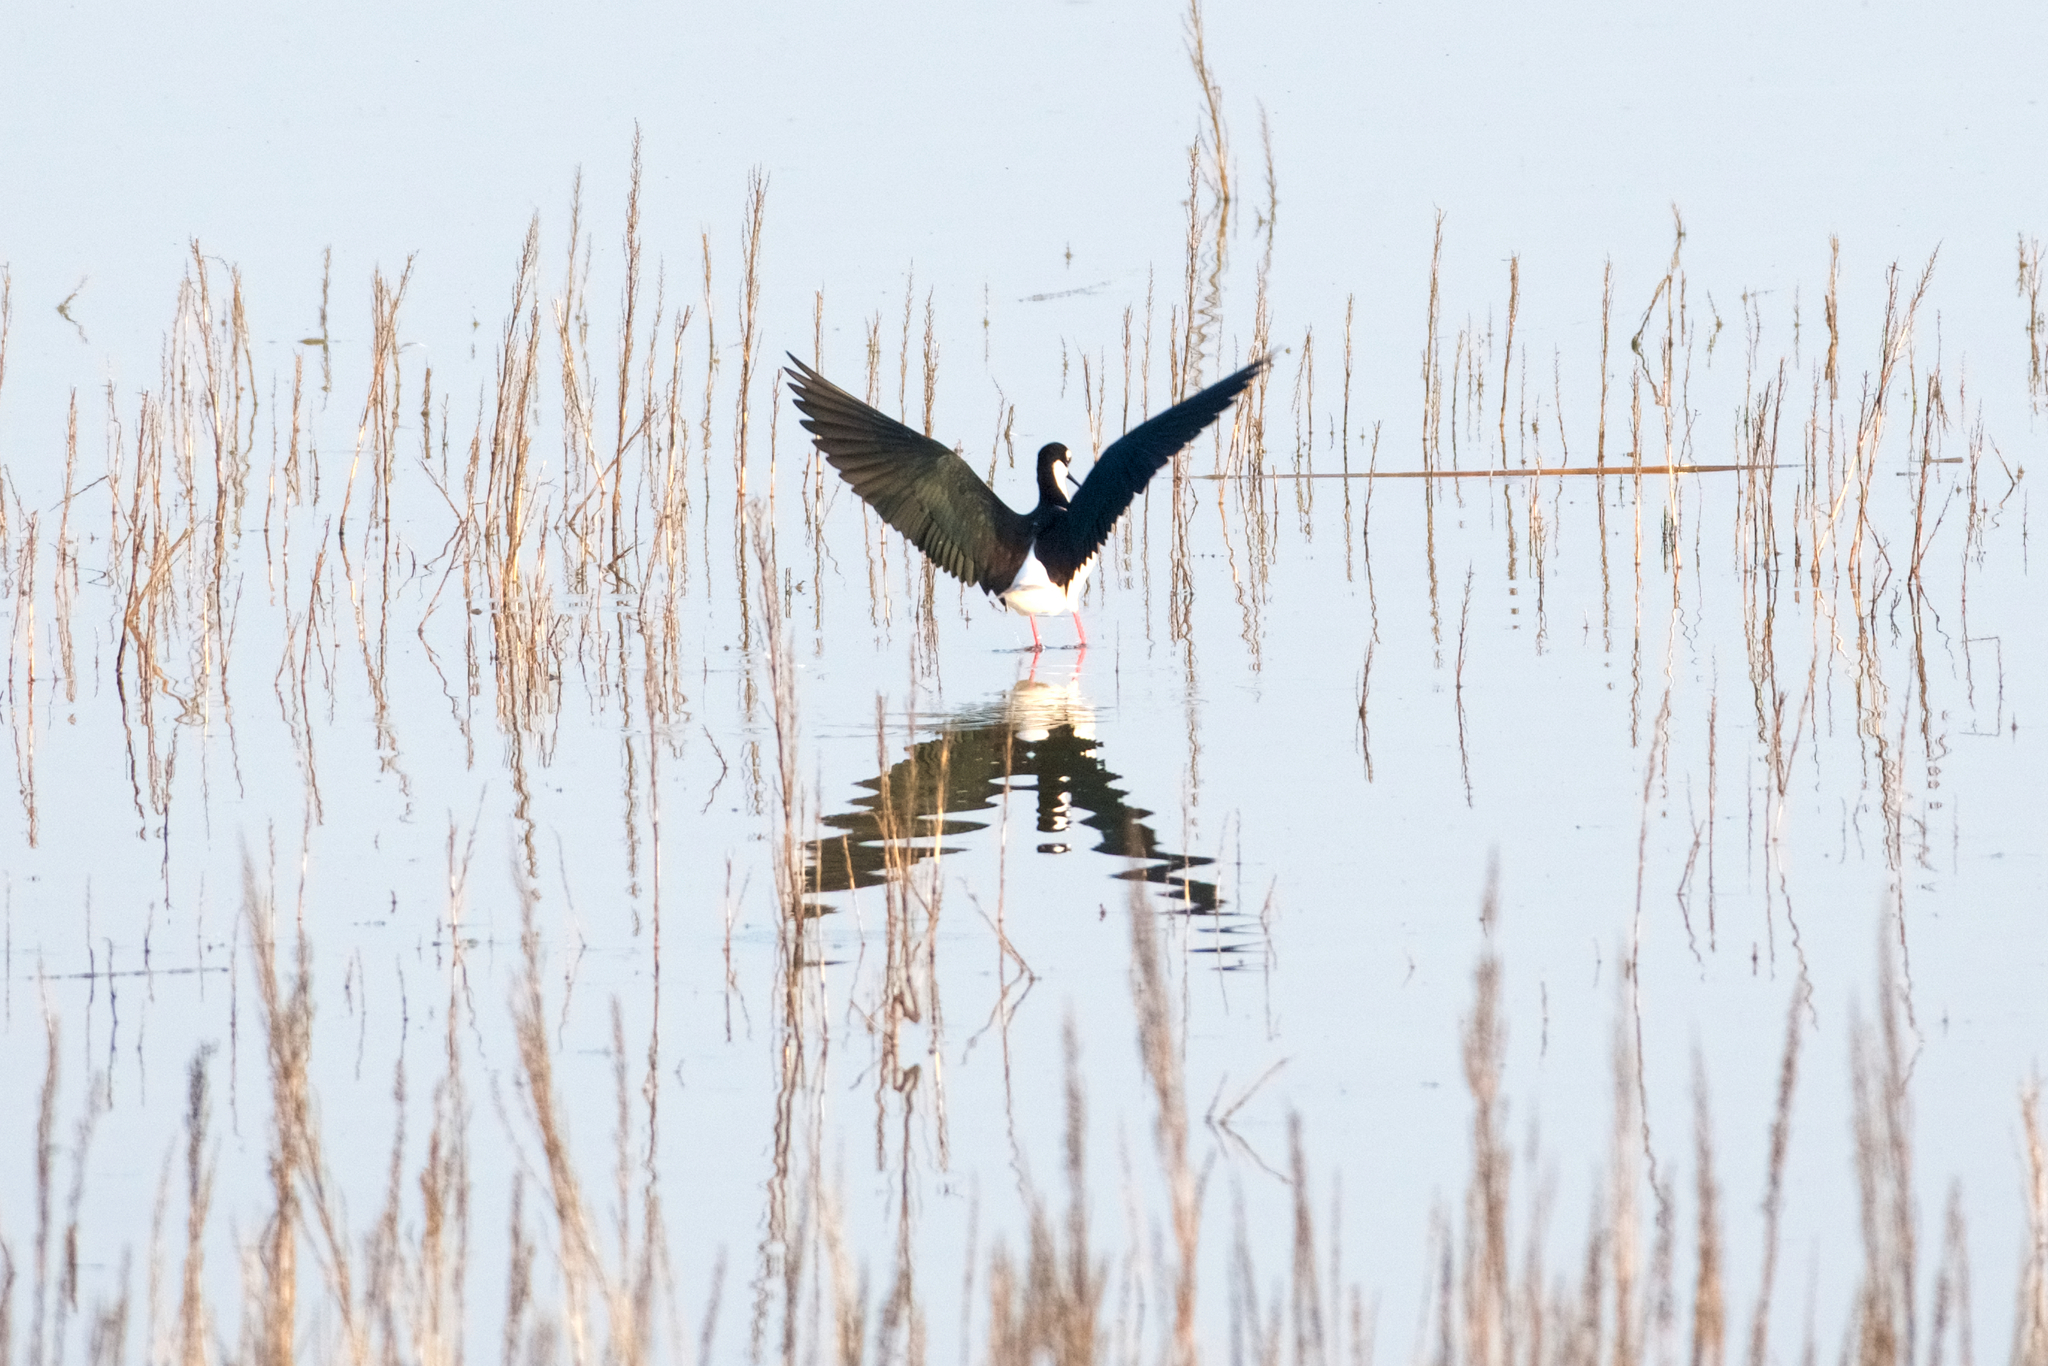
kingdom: Animalia
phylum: Chordata
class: Aves
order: Charadriiformes
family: Recurvirostridae
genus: Himantopus
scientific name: Himantopus mexicanus
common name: Black-necked stilt
